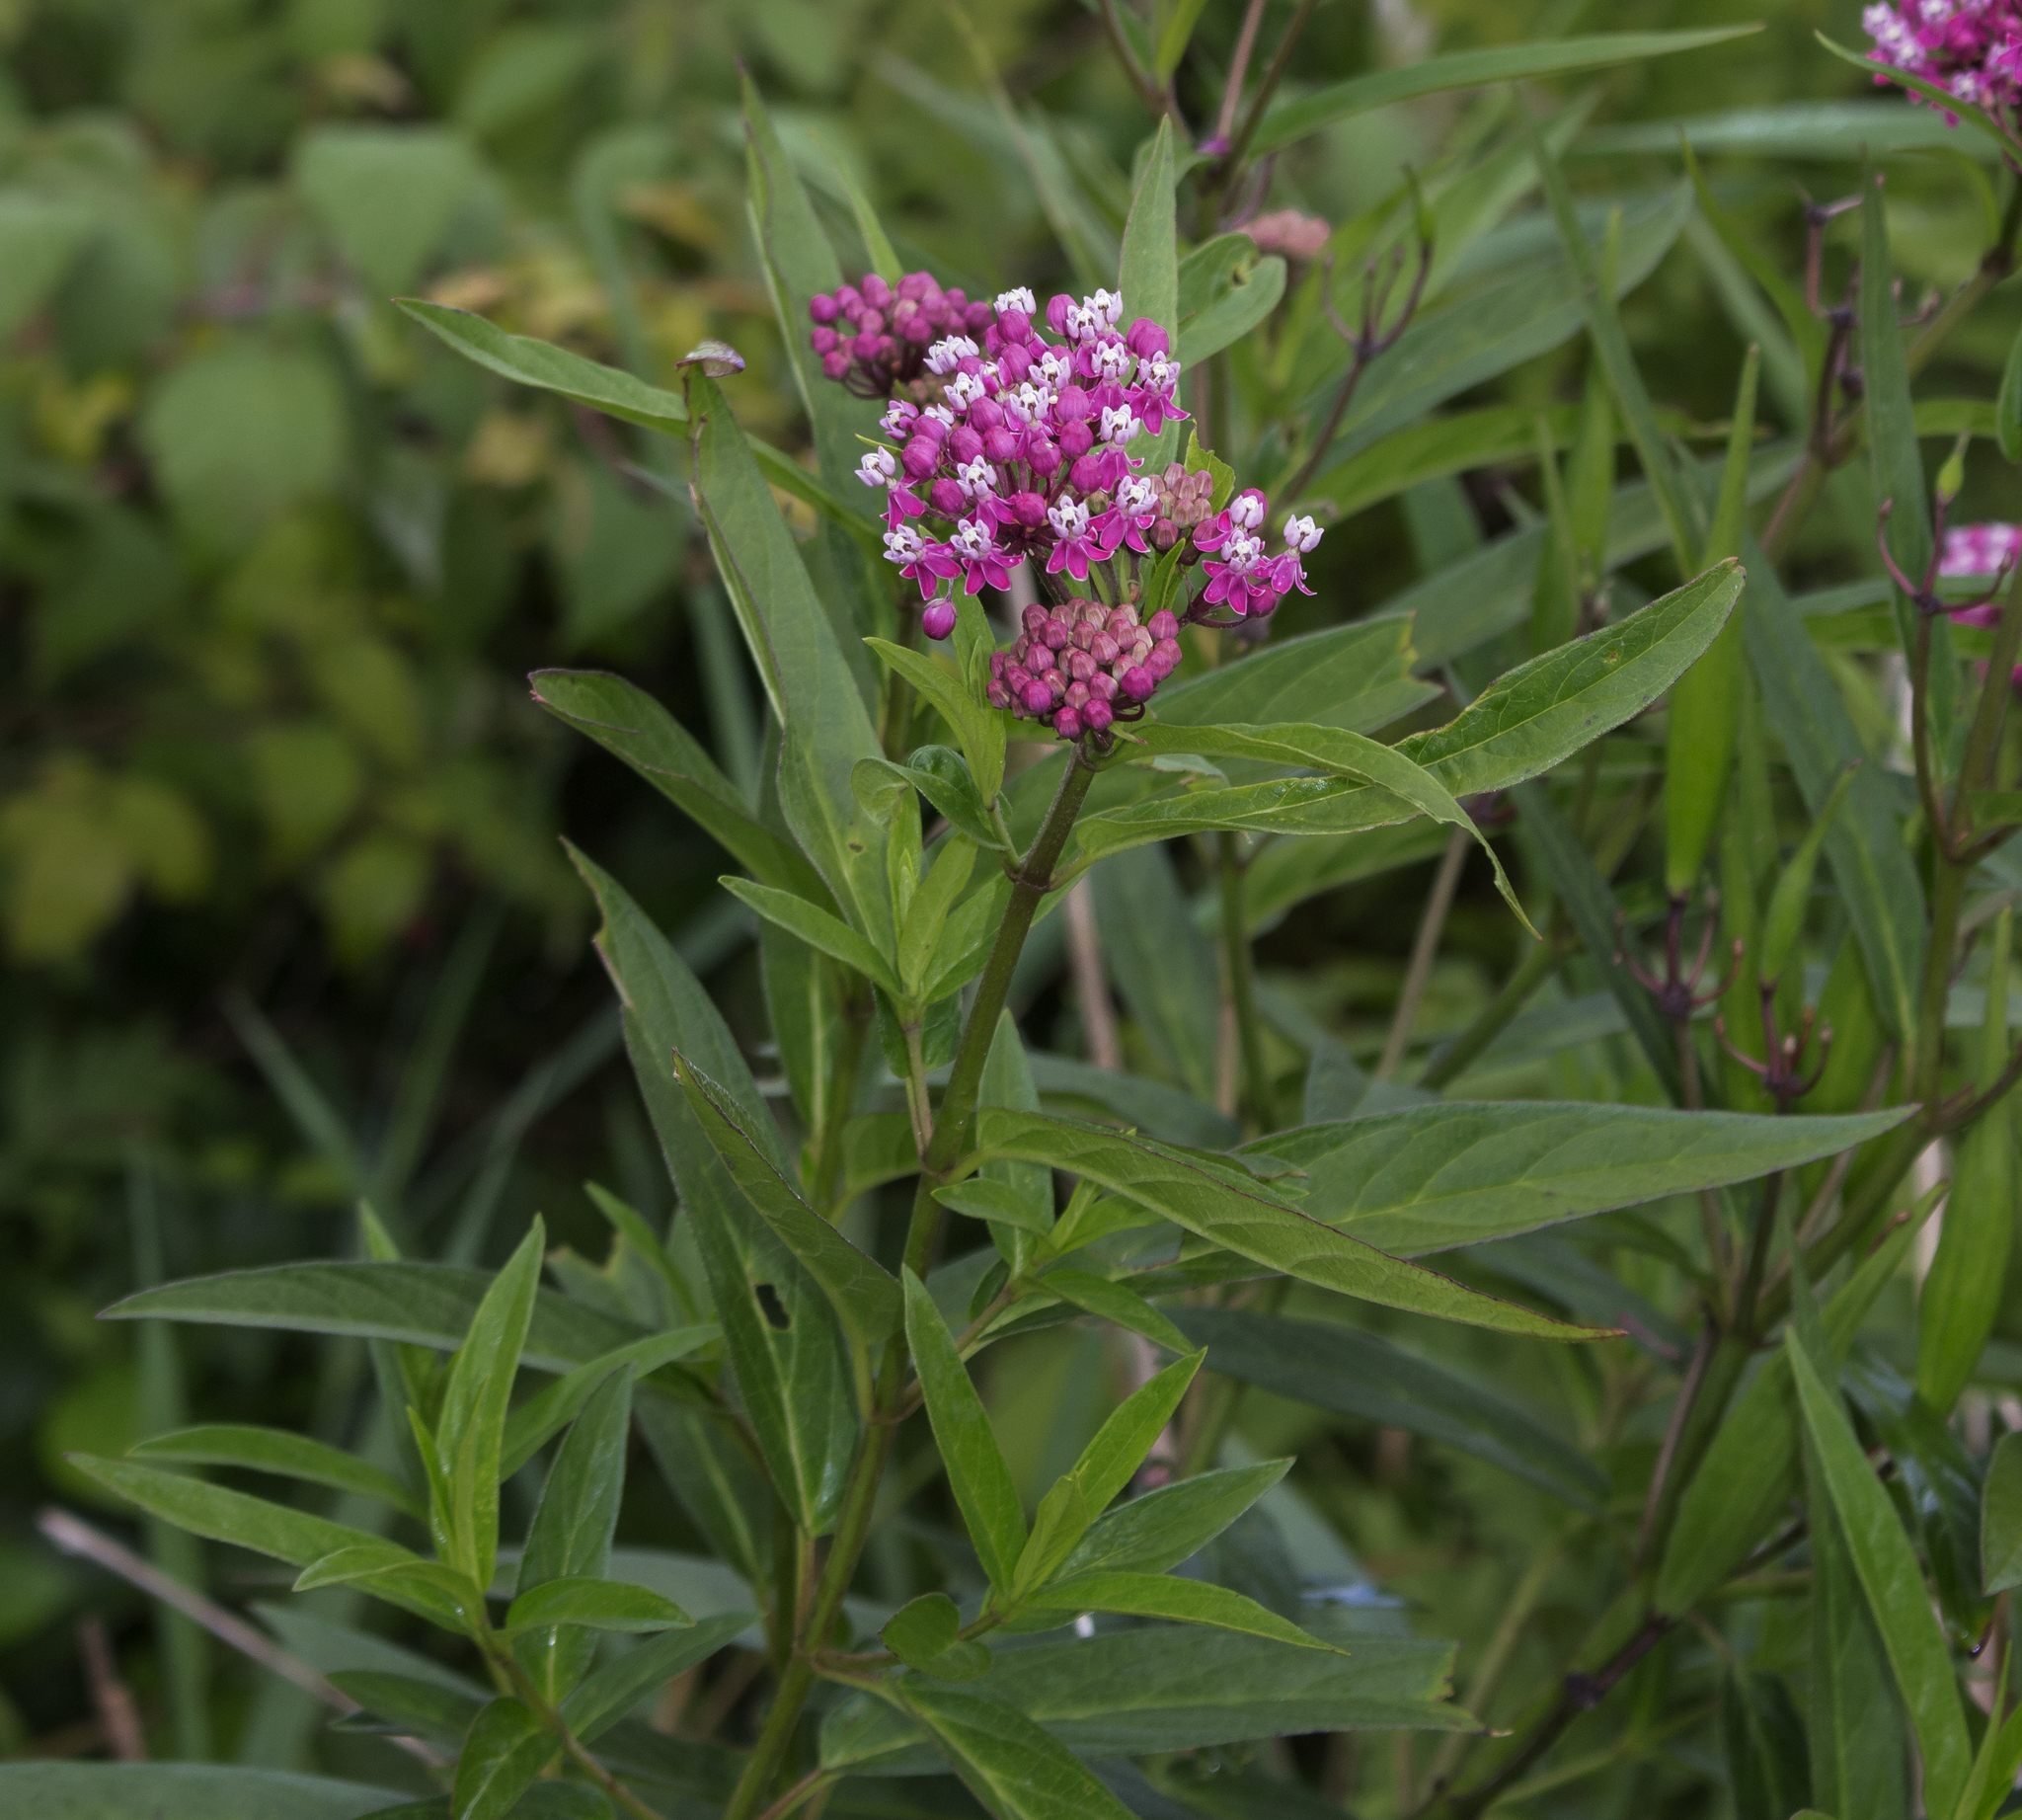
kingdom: Plantae
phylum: Tracheophyta
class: Magnoliopsida
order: Gentianales
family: Apocynaceae
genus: Asclepias
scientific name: Asclepias incarnata
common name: Swamp milkweed
